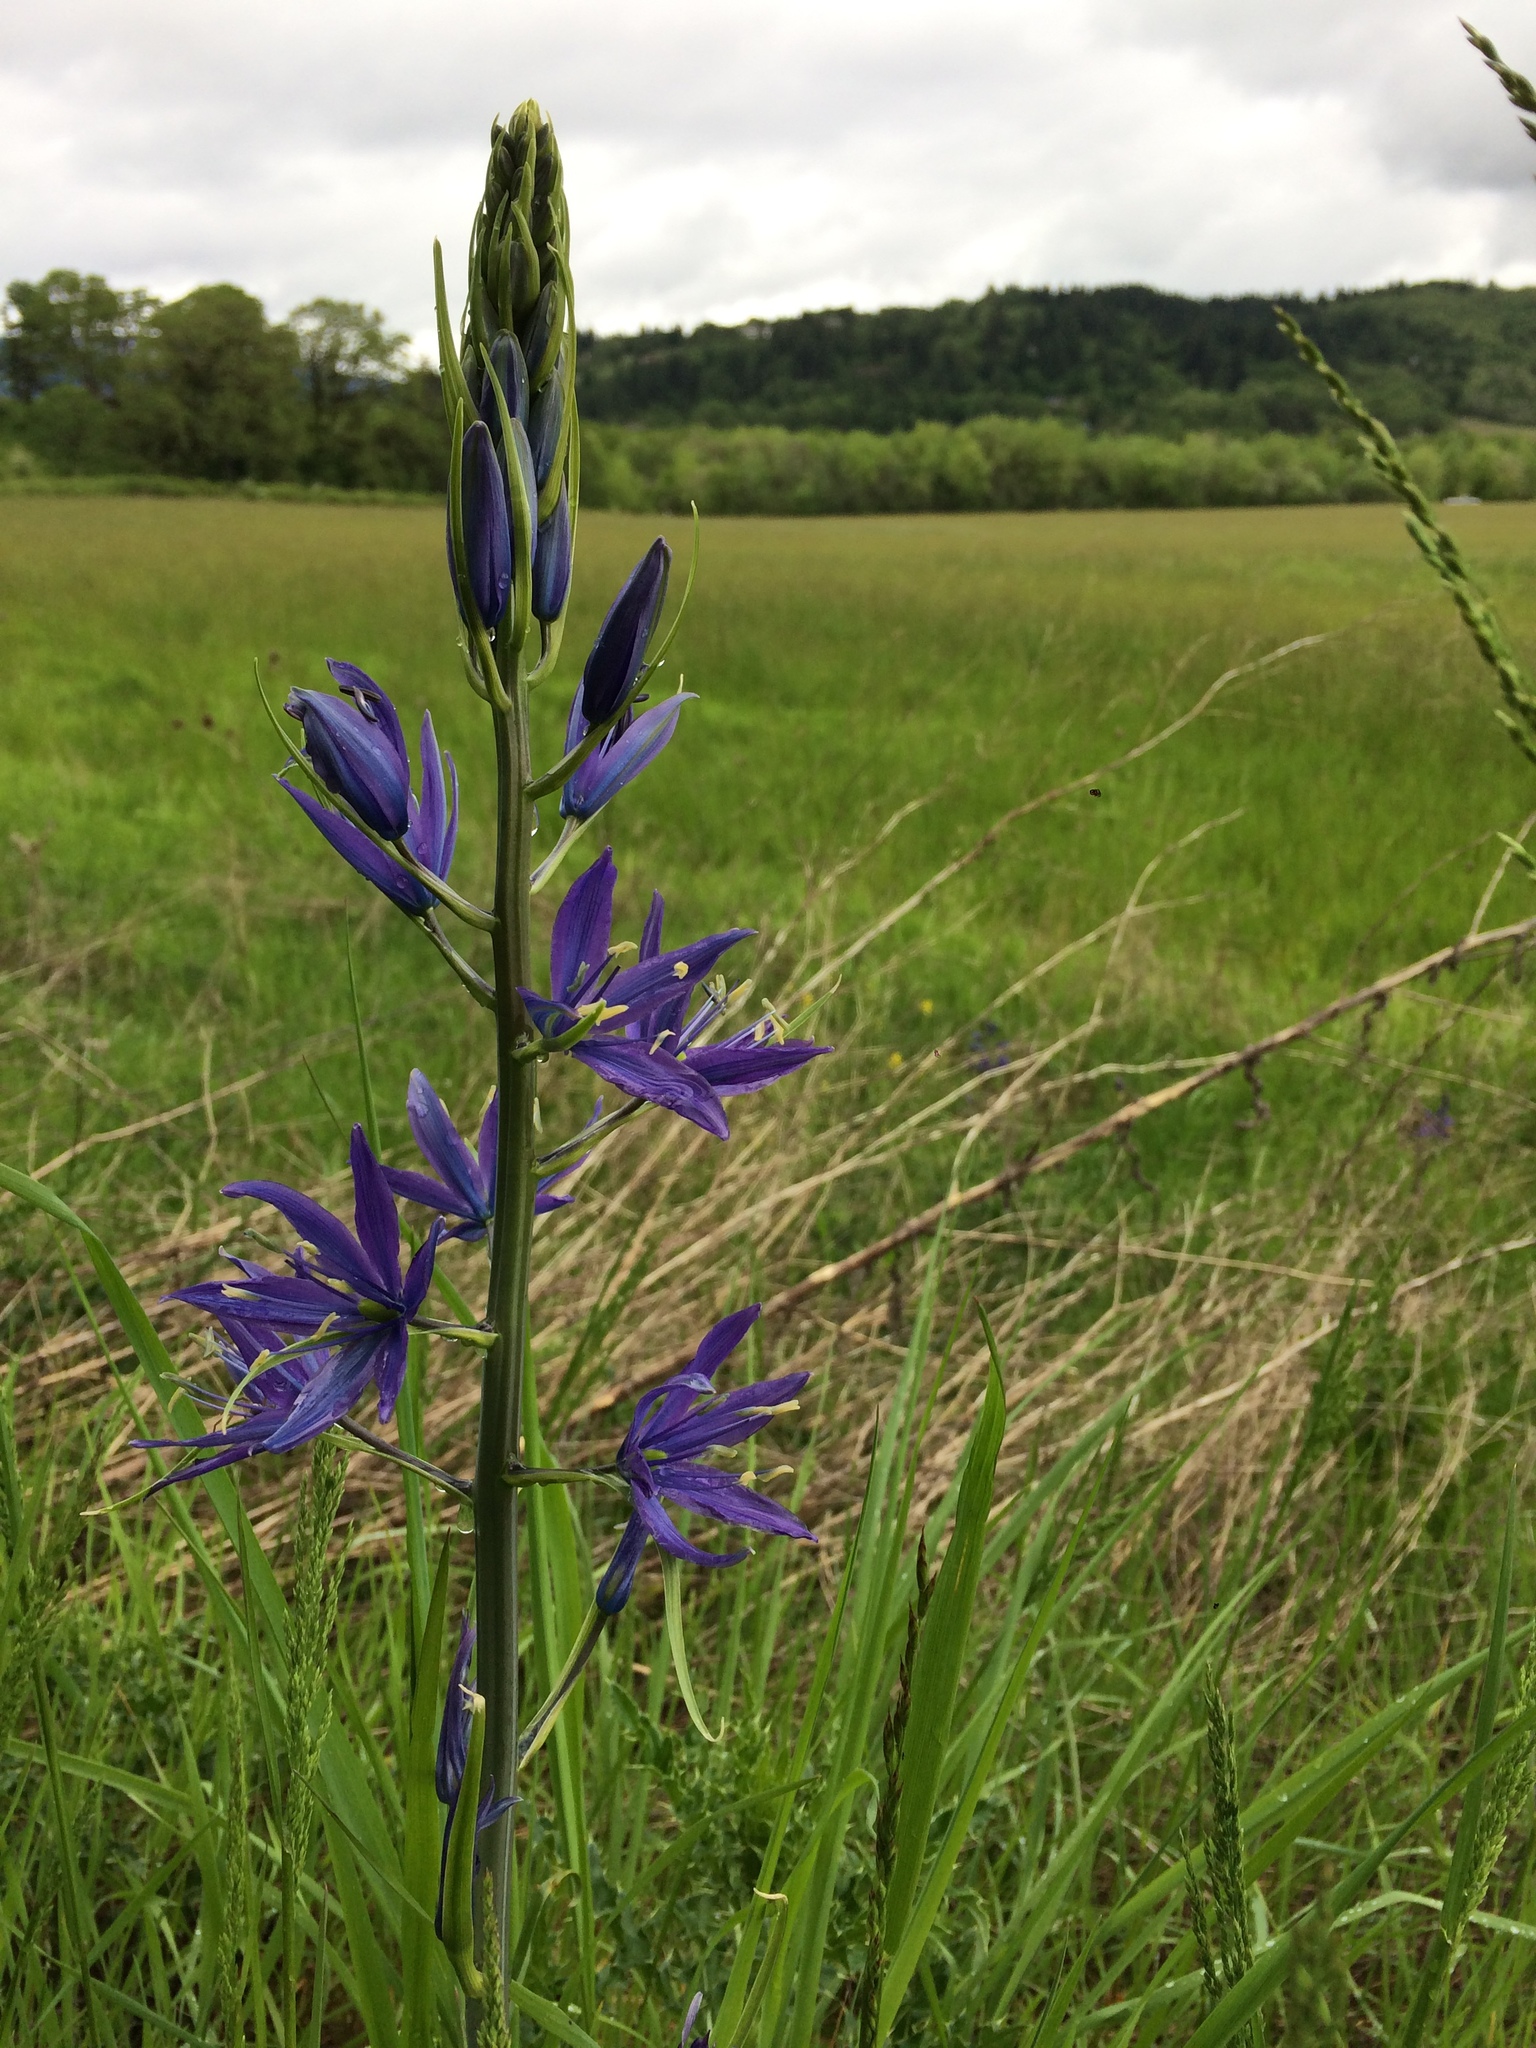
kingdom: Plantae
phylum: Tracheophyta
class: Liliopsida
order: Asparagales
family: Asparagaceae
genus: Camassia
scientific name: Camassia leichtlinii
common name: Leichtlin's camas
